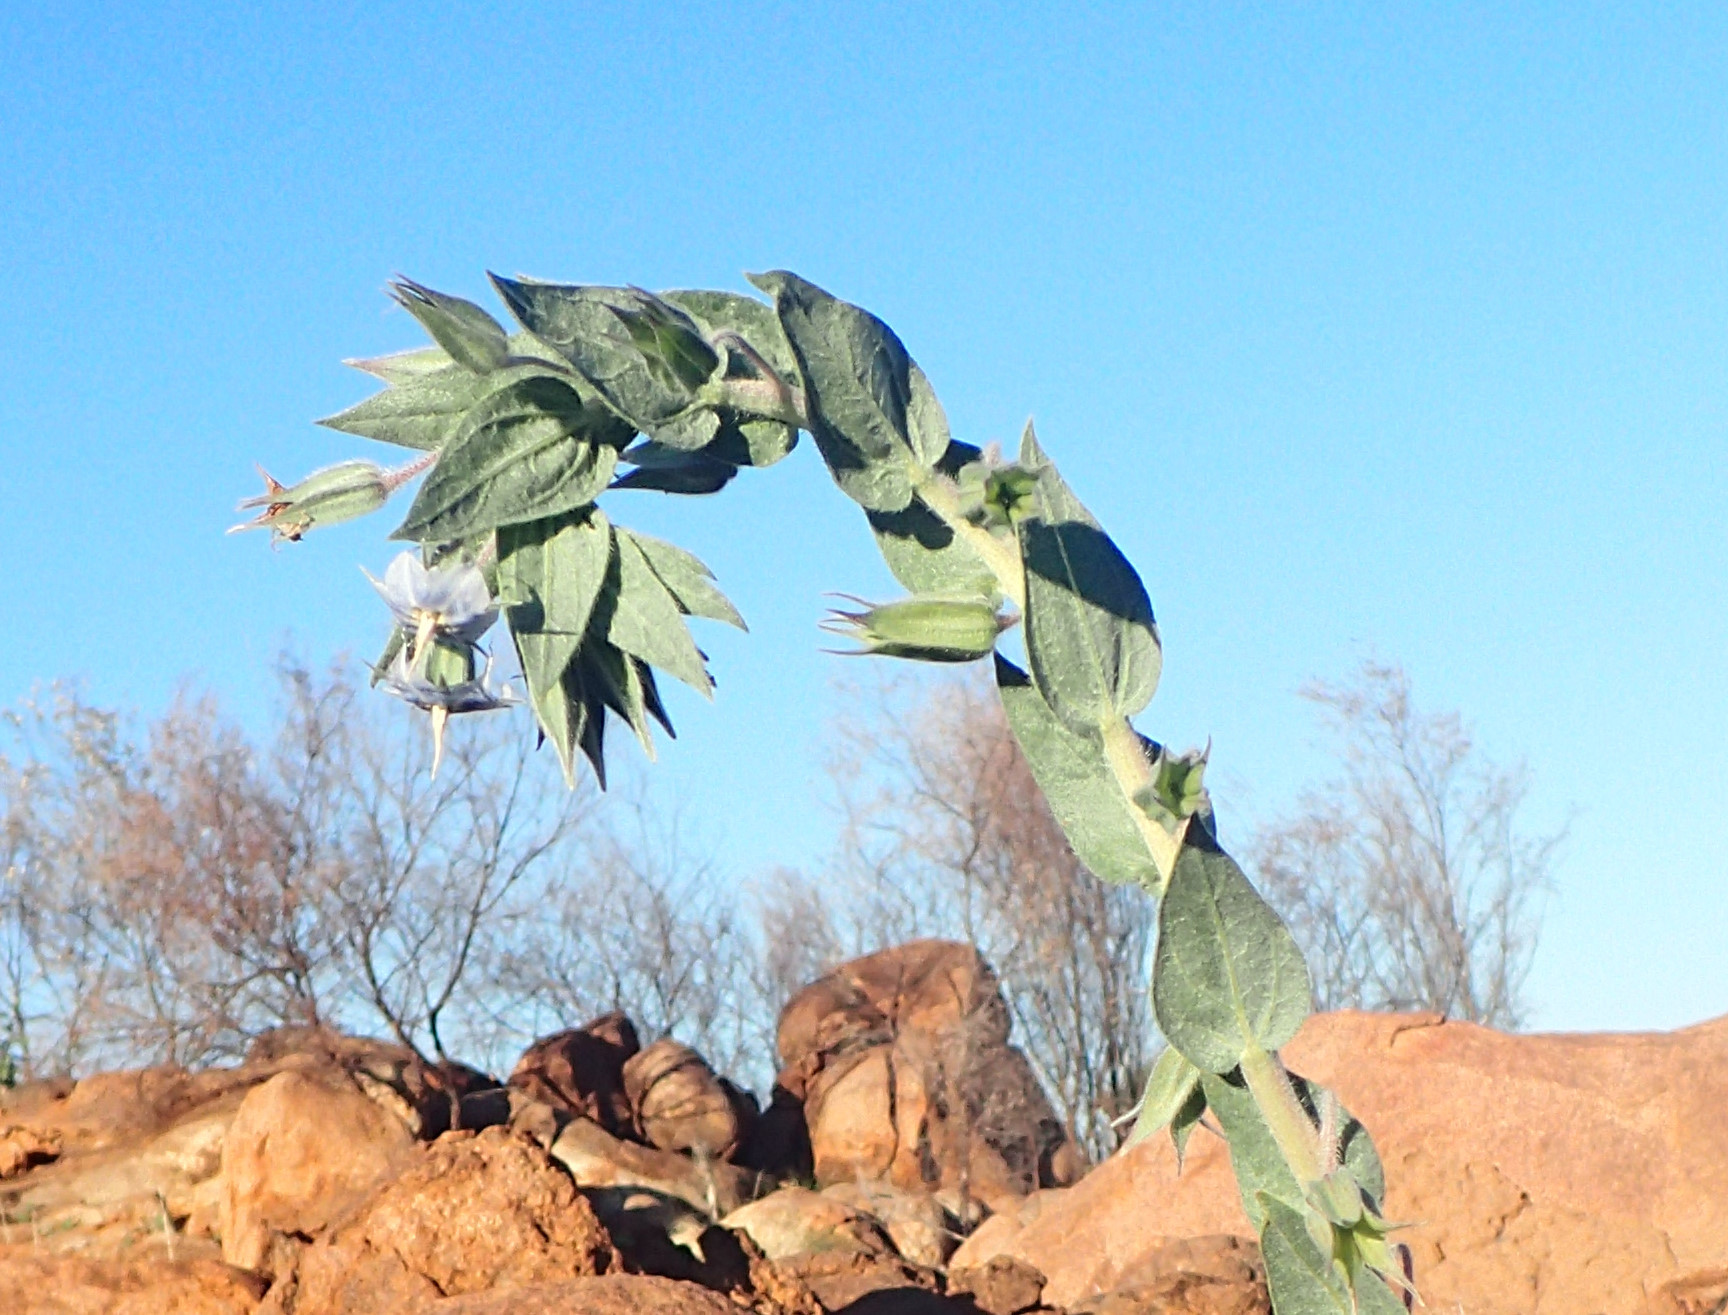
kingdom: Plantae
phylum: Tracheophyta
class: Magnoliopsida
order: Boraginales
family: Boraginaceae
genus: Trichodesma
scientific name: Trichodesma zeylanicum
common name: Camelbush
